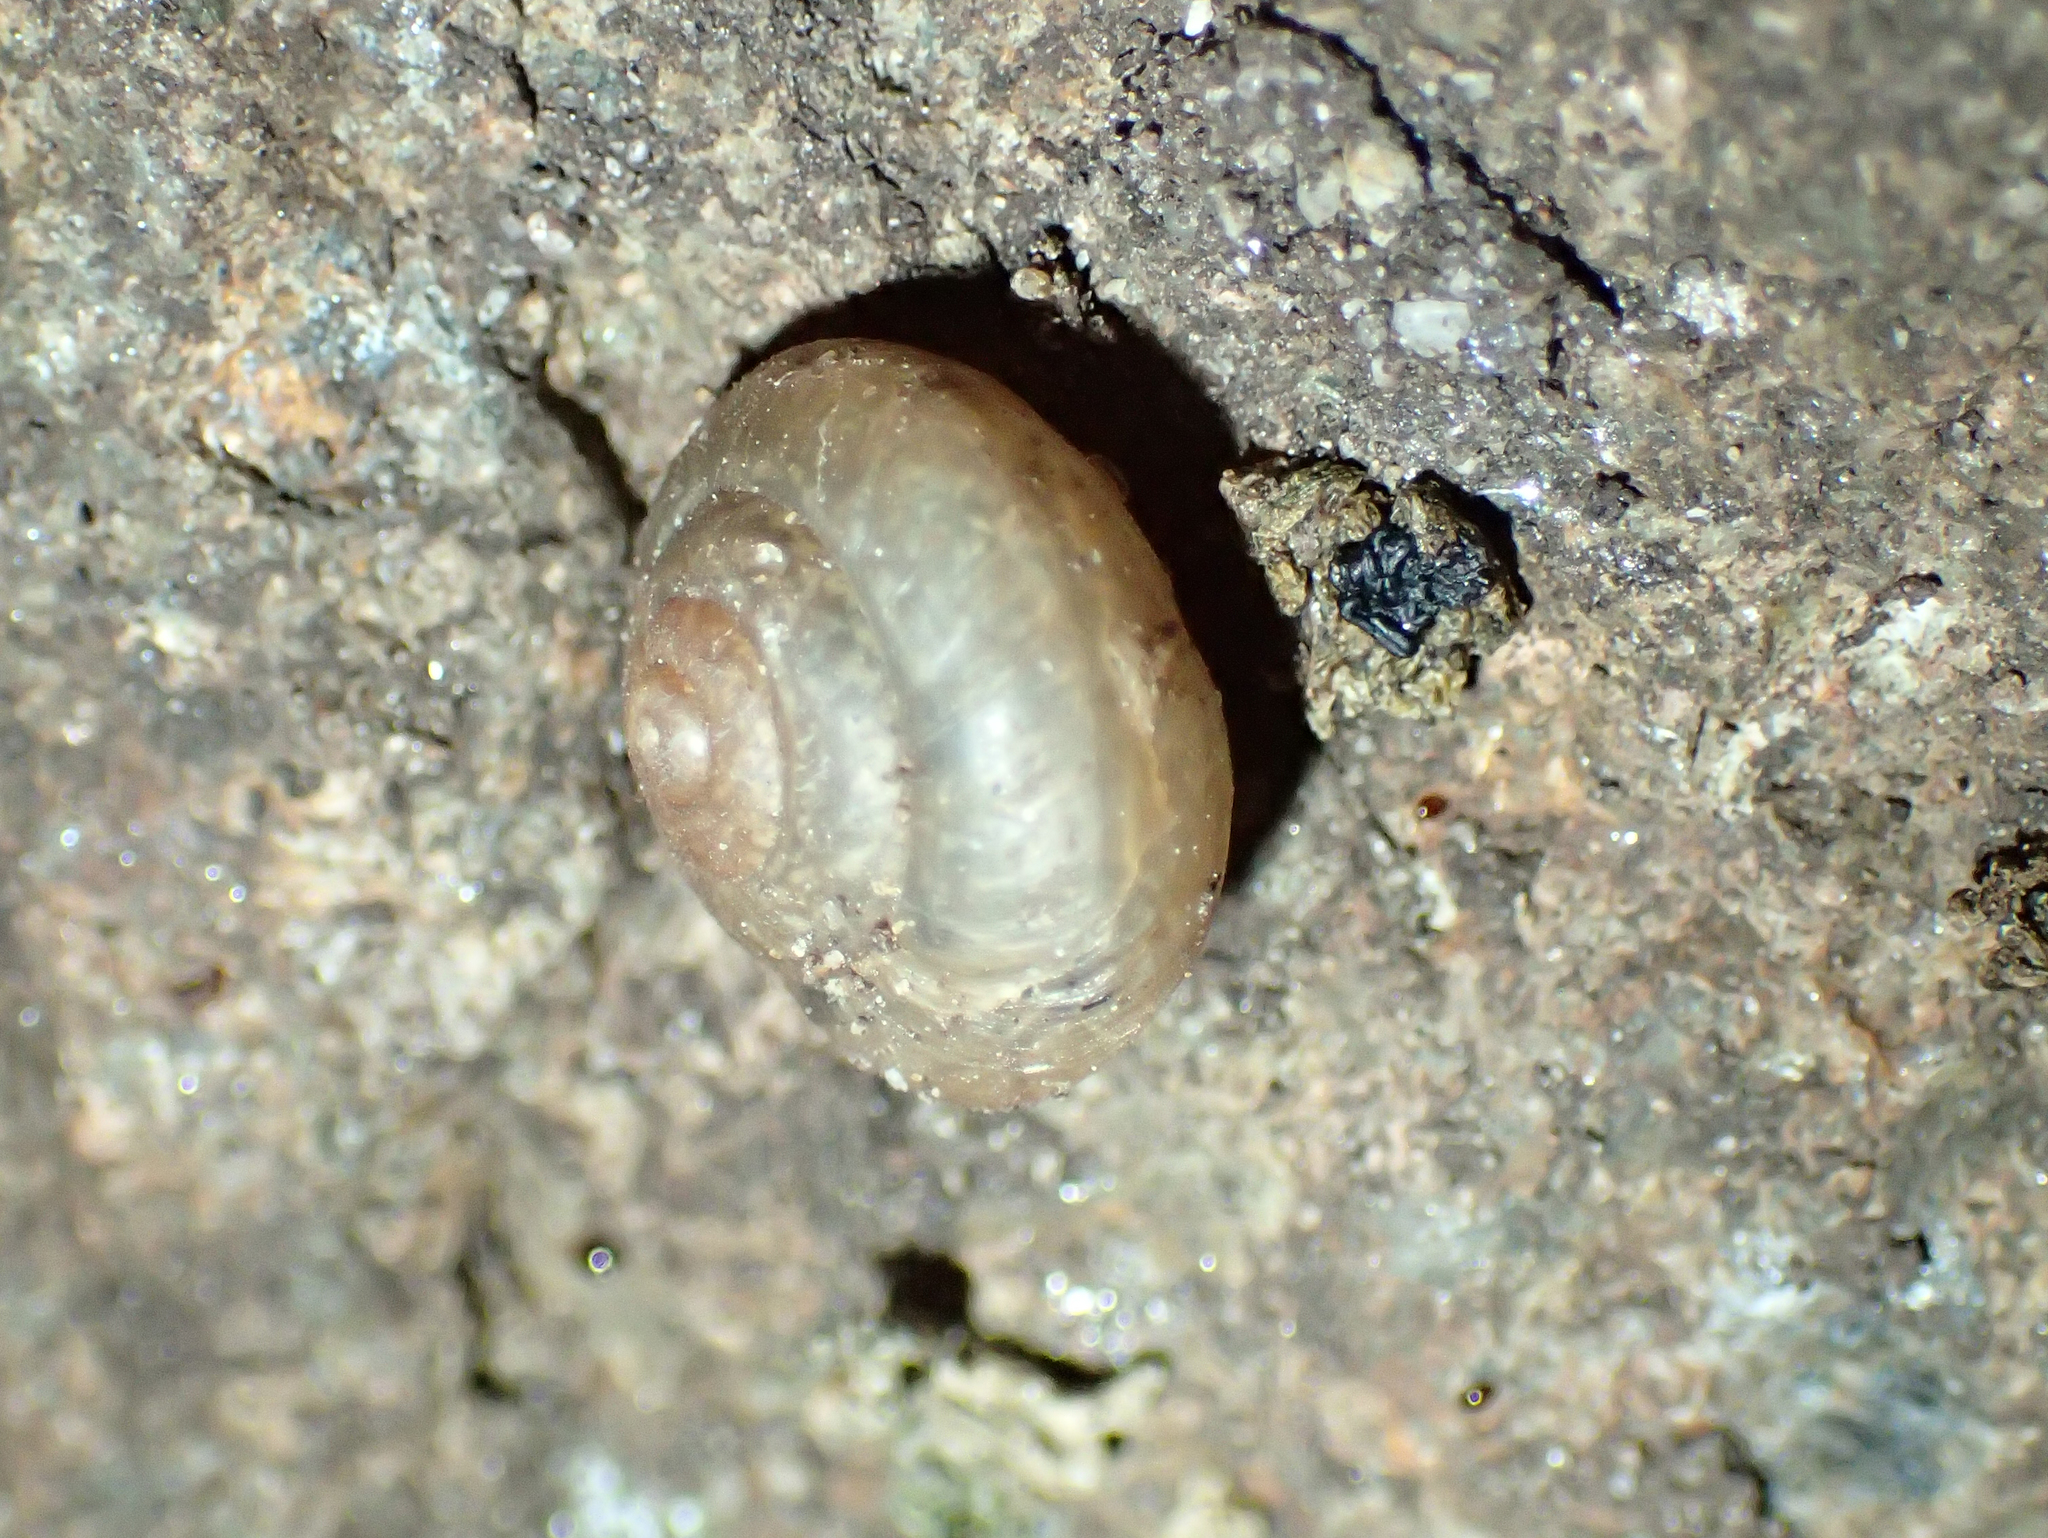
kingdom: Animalia
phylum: Mollusca
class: Gastropoda
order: Stylommatophora
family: Camaenidae
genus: Bradybaena
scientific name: Bradybaena similaris
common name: Asian trampsnail
